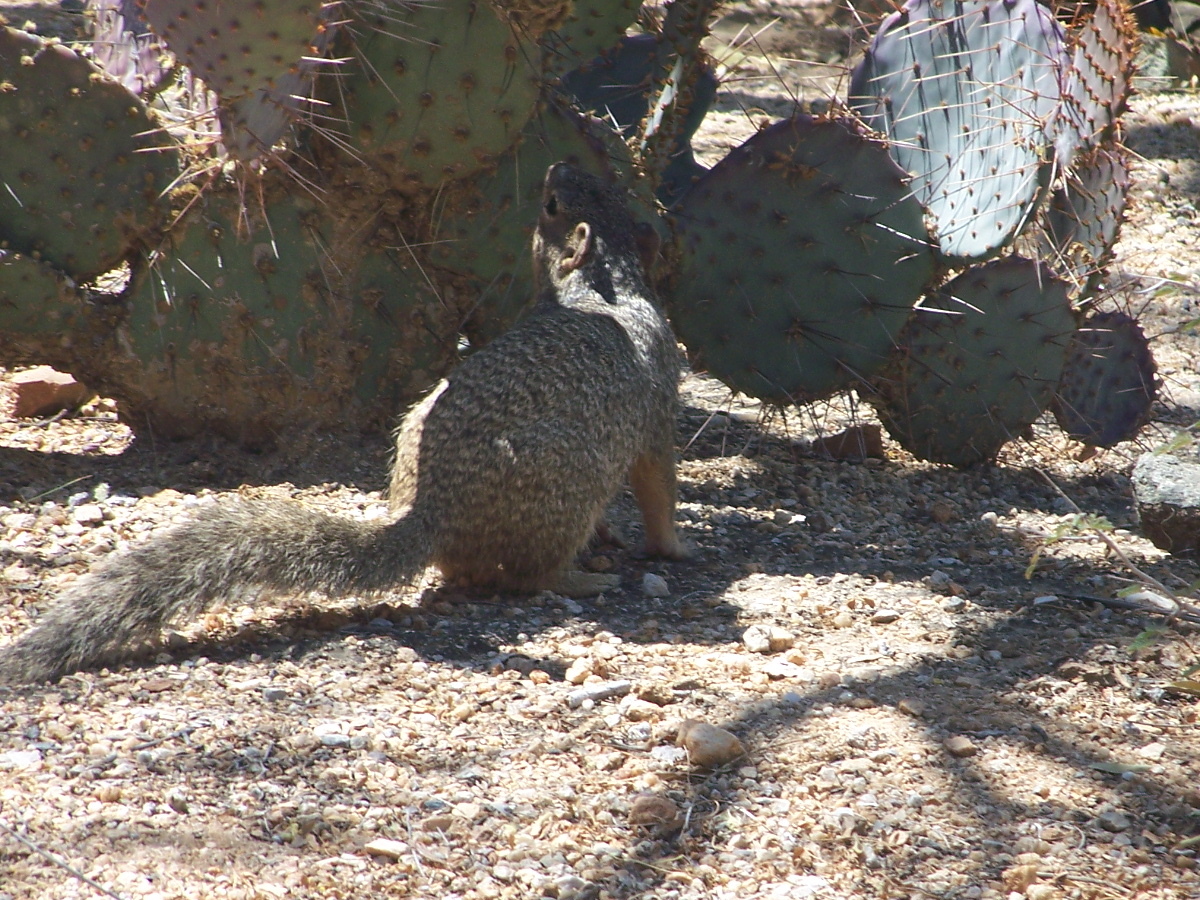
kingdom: Animalia
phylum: Chordata
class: Mammalia
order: Rodentia
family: Sciuridae
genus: Otospermophilus
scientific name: Otospermophilus variegatus
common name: Rock squirrel
